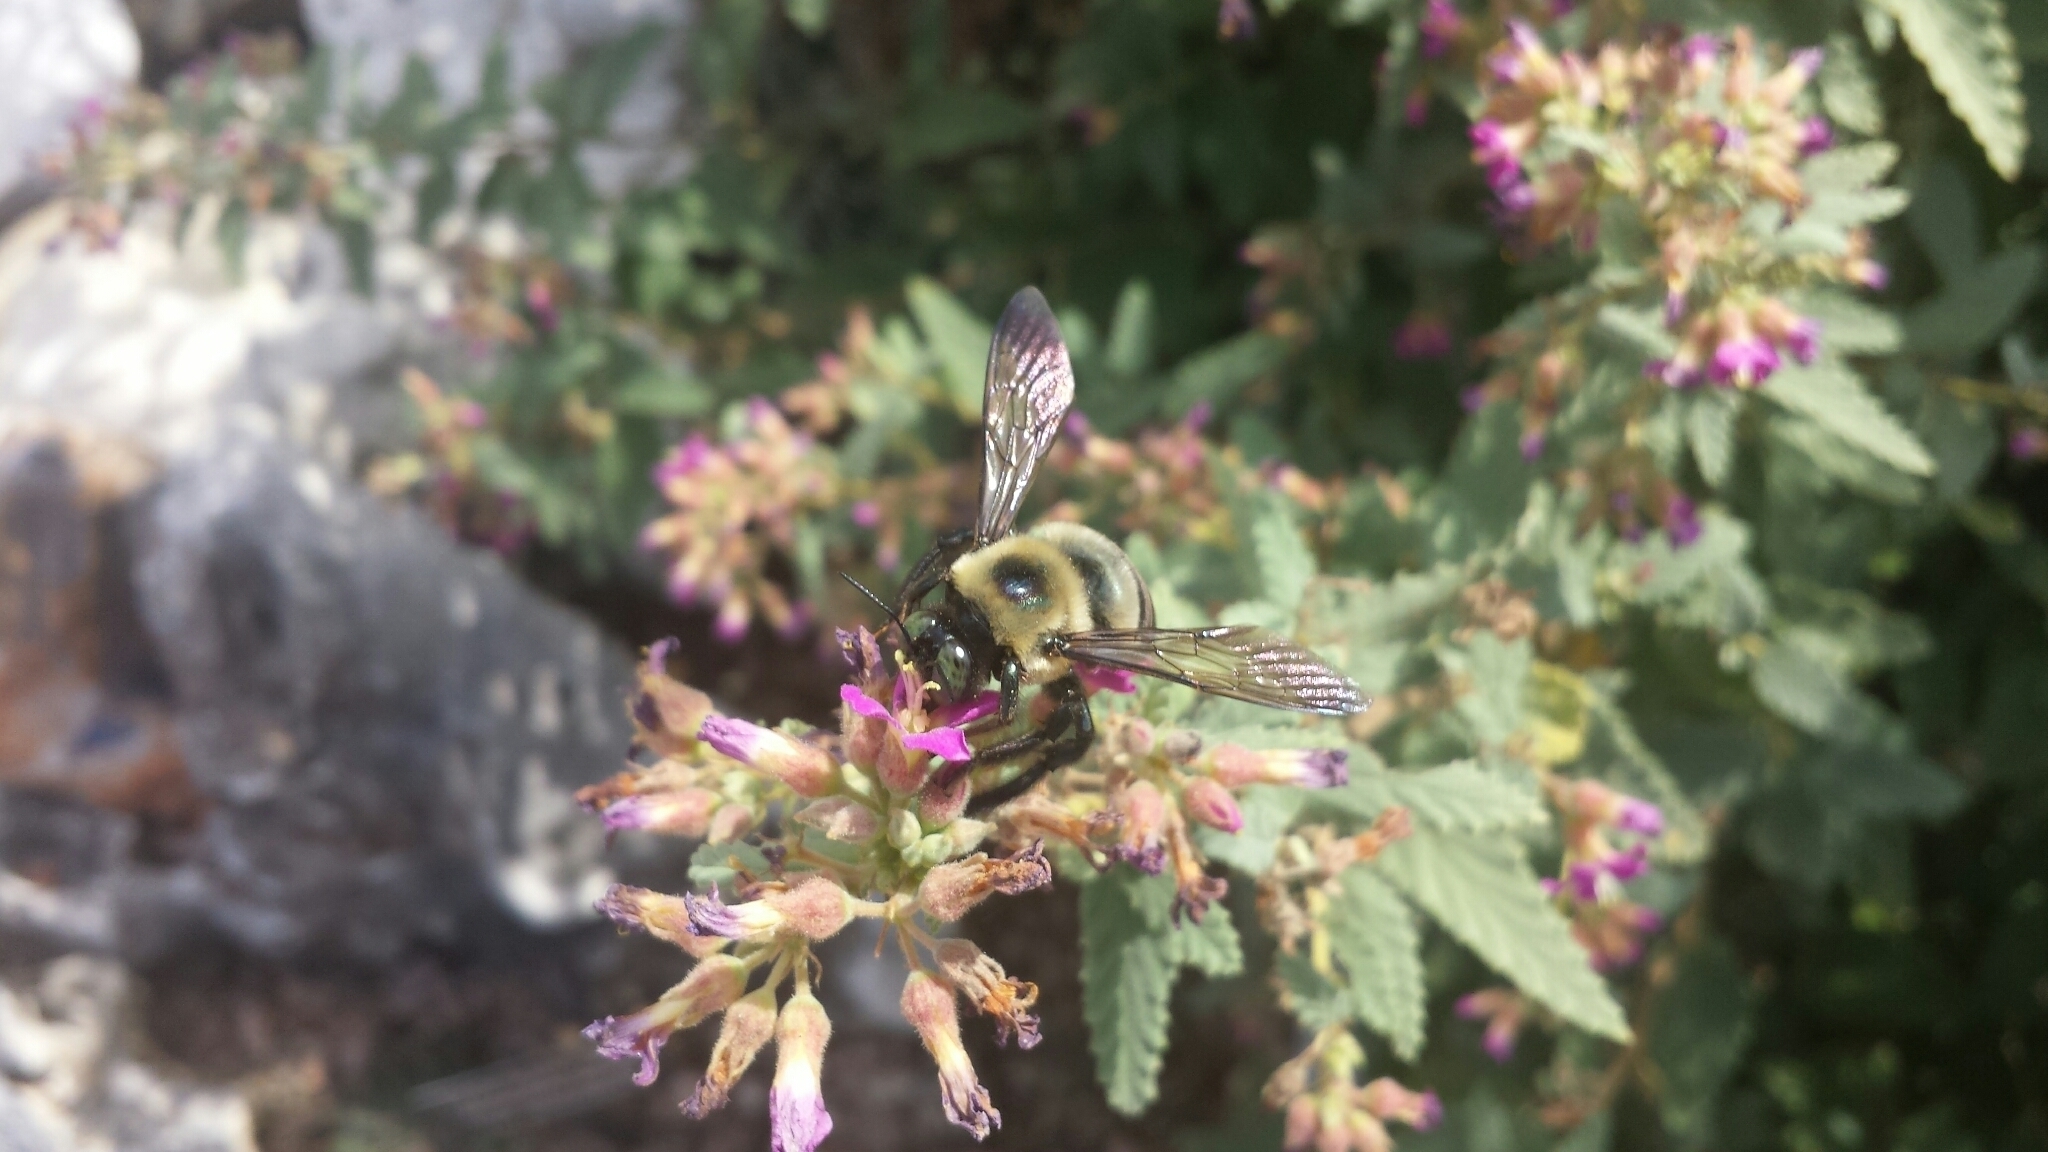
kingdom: Animalia
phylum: Arthropoda
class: Insecta
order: Hymenoptera
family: Apidae
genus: Xylocopa
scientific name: Xylocopa virginica
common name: Carpenter bee
